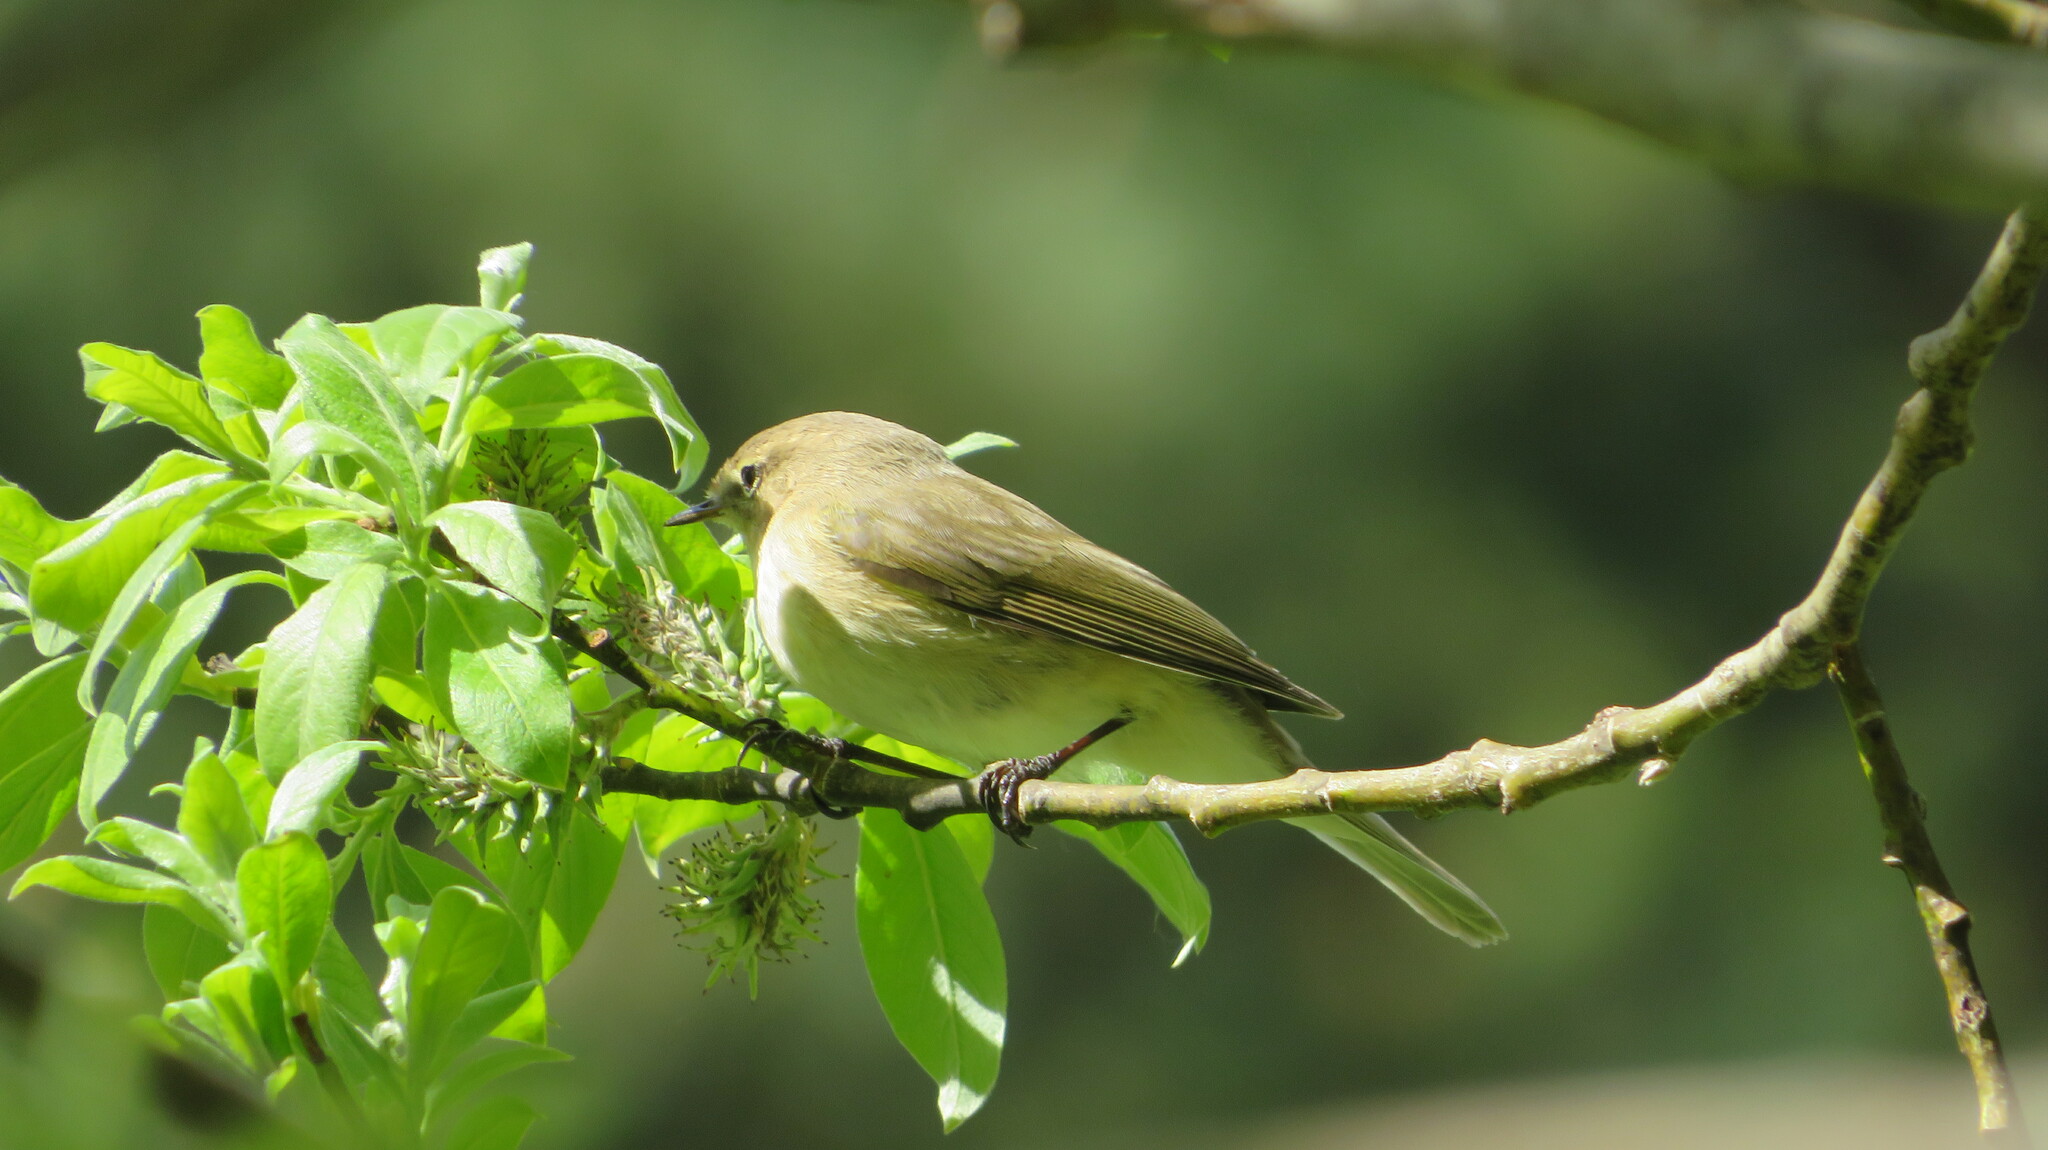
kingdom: Animalia
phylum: Chordata
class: Aves
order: Passeriformes
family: Phylloscopidae
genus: Phylloscopus
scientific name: Phylloscopus collybita
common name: Common chiffchaff
